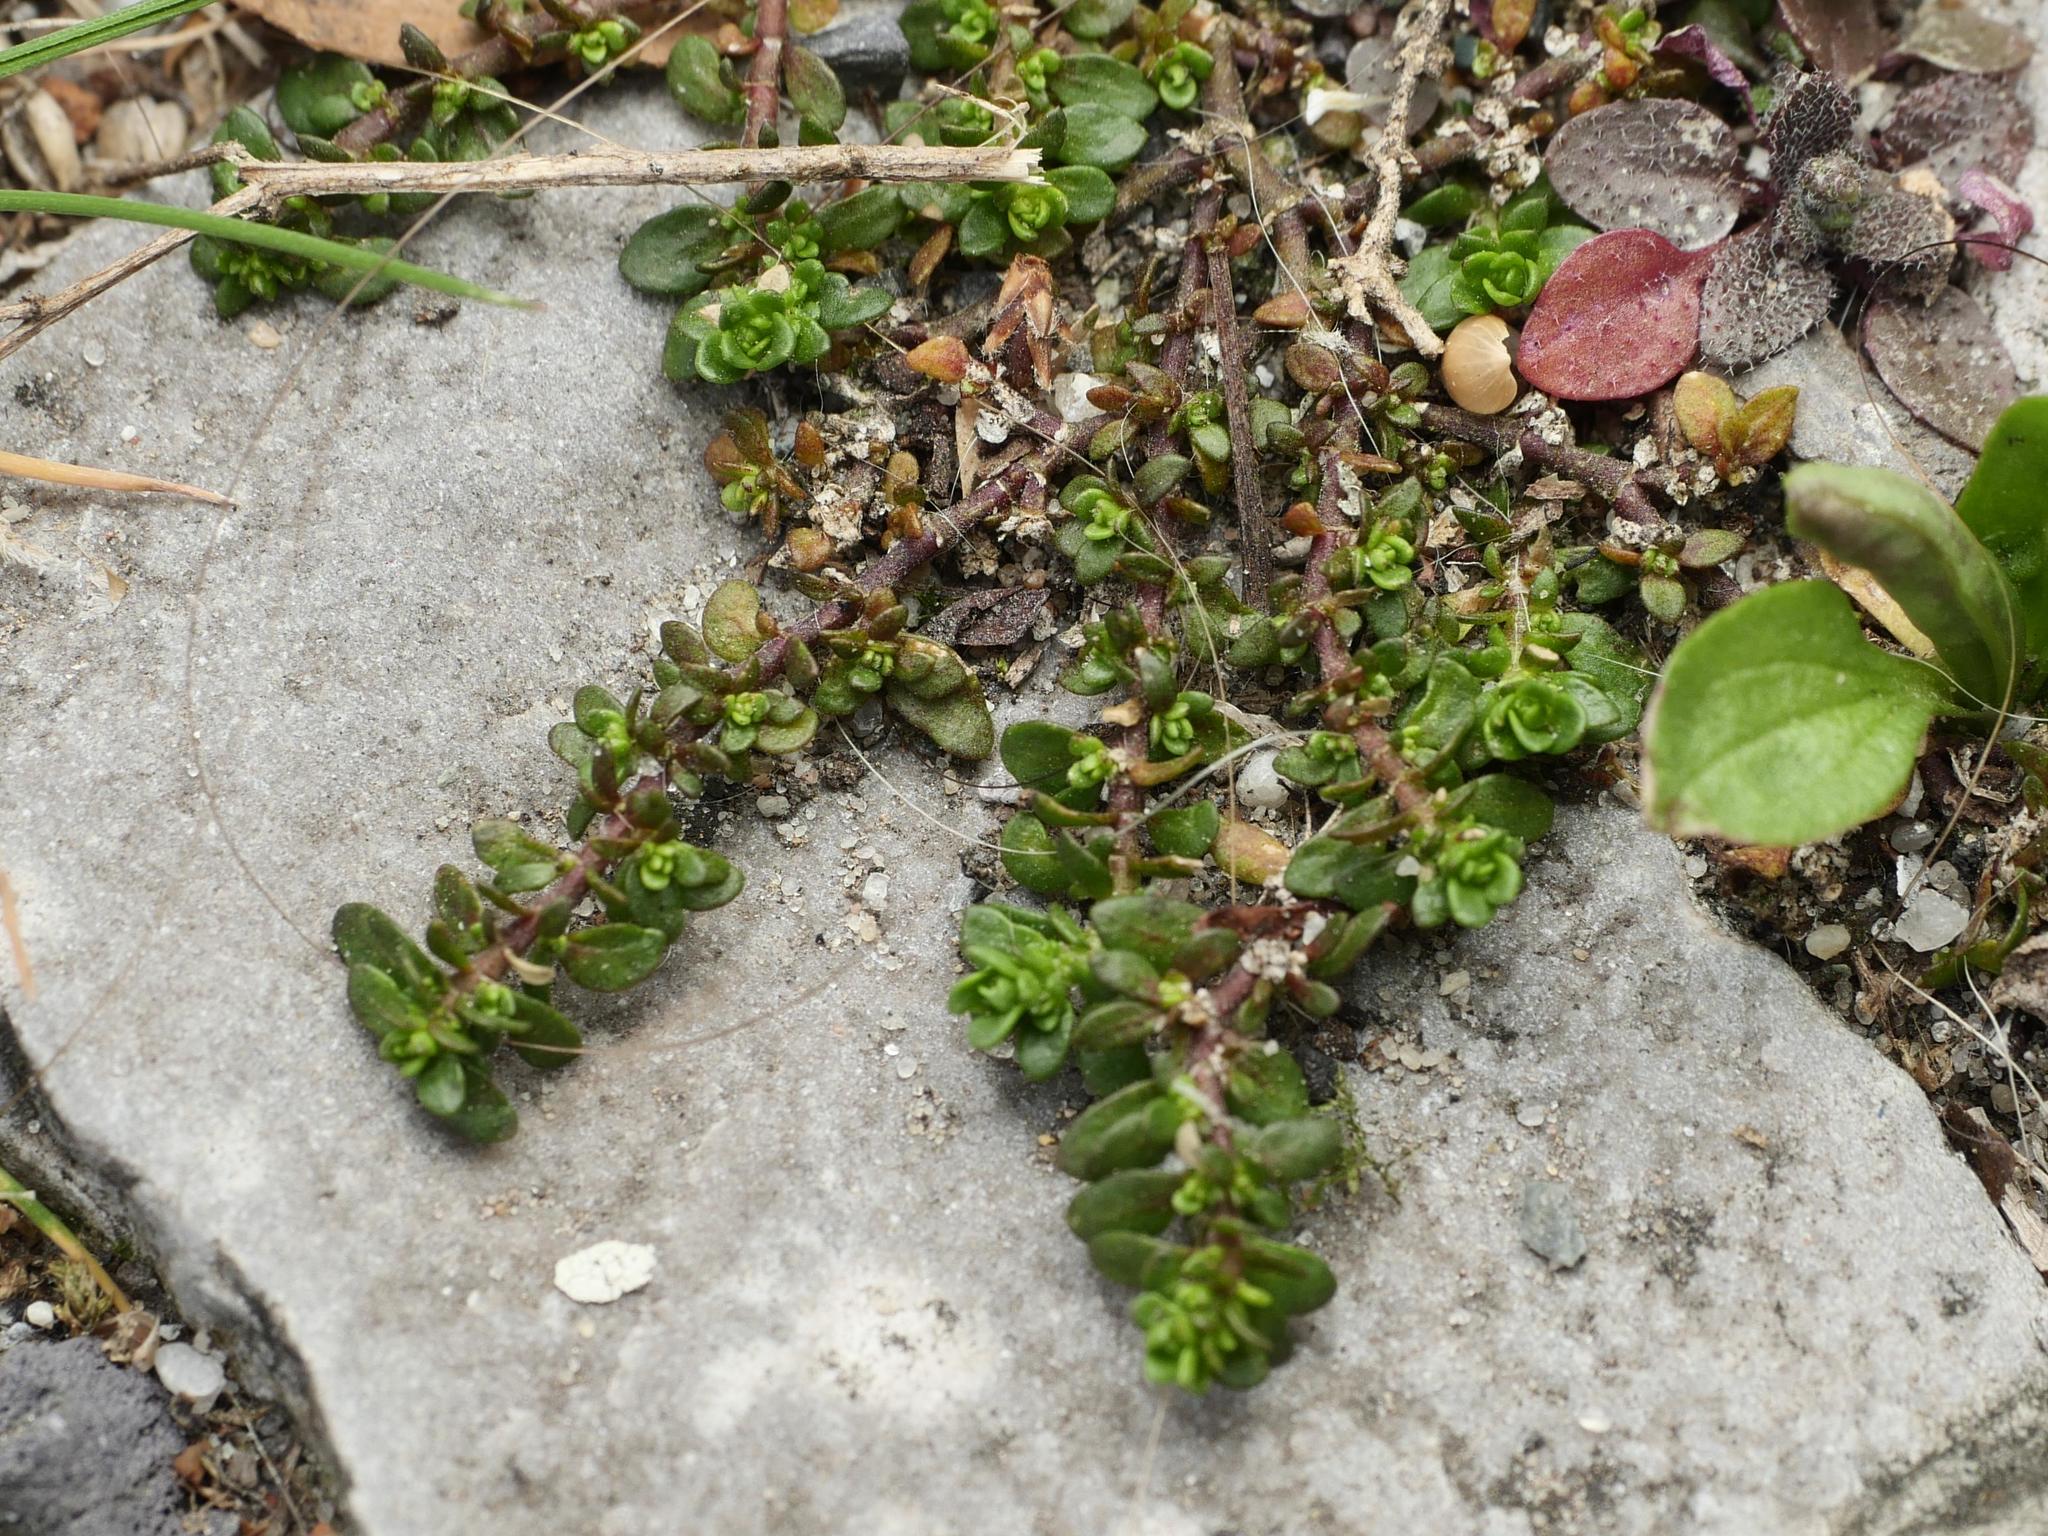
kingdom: Plantae
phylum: Tracheophyta
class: Magnoliopsida
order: Caryophyllales
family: Caryophyllaceae
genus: Herniaria
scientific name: Herniaria glabra
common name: Smooth rupturewort
